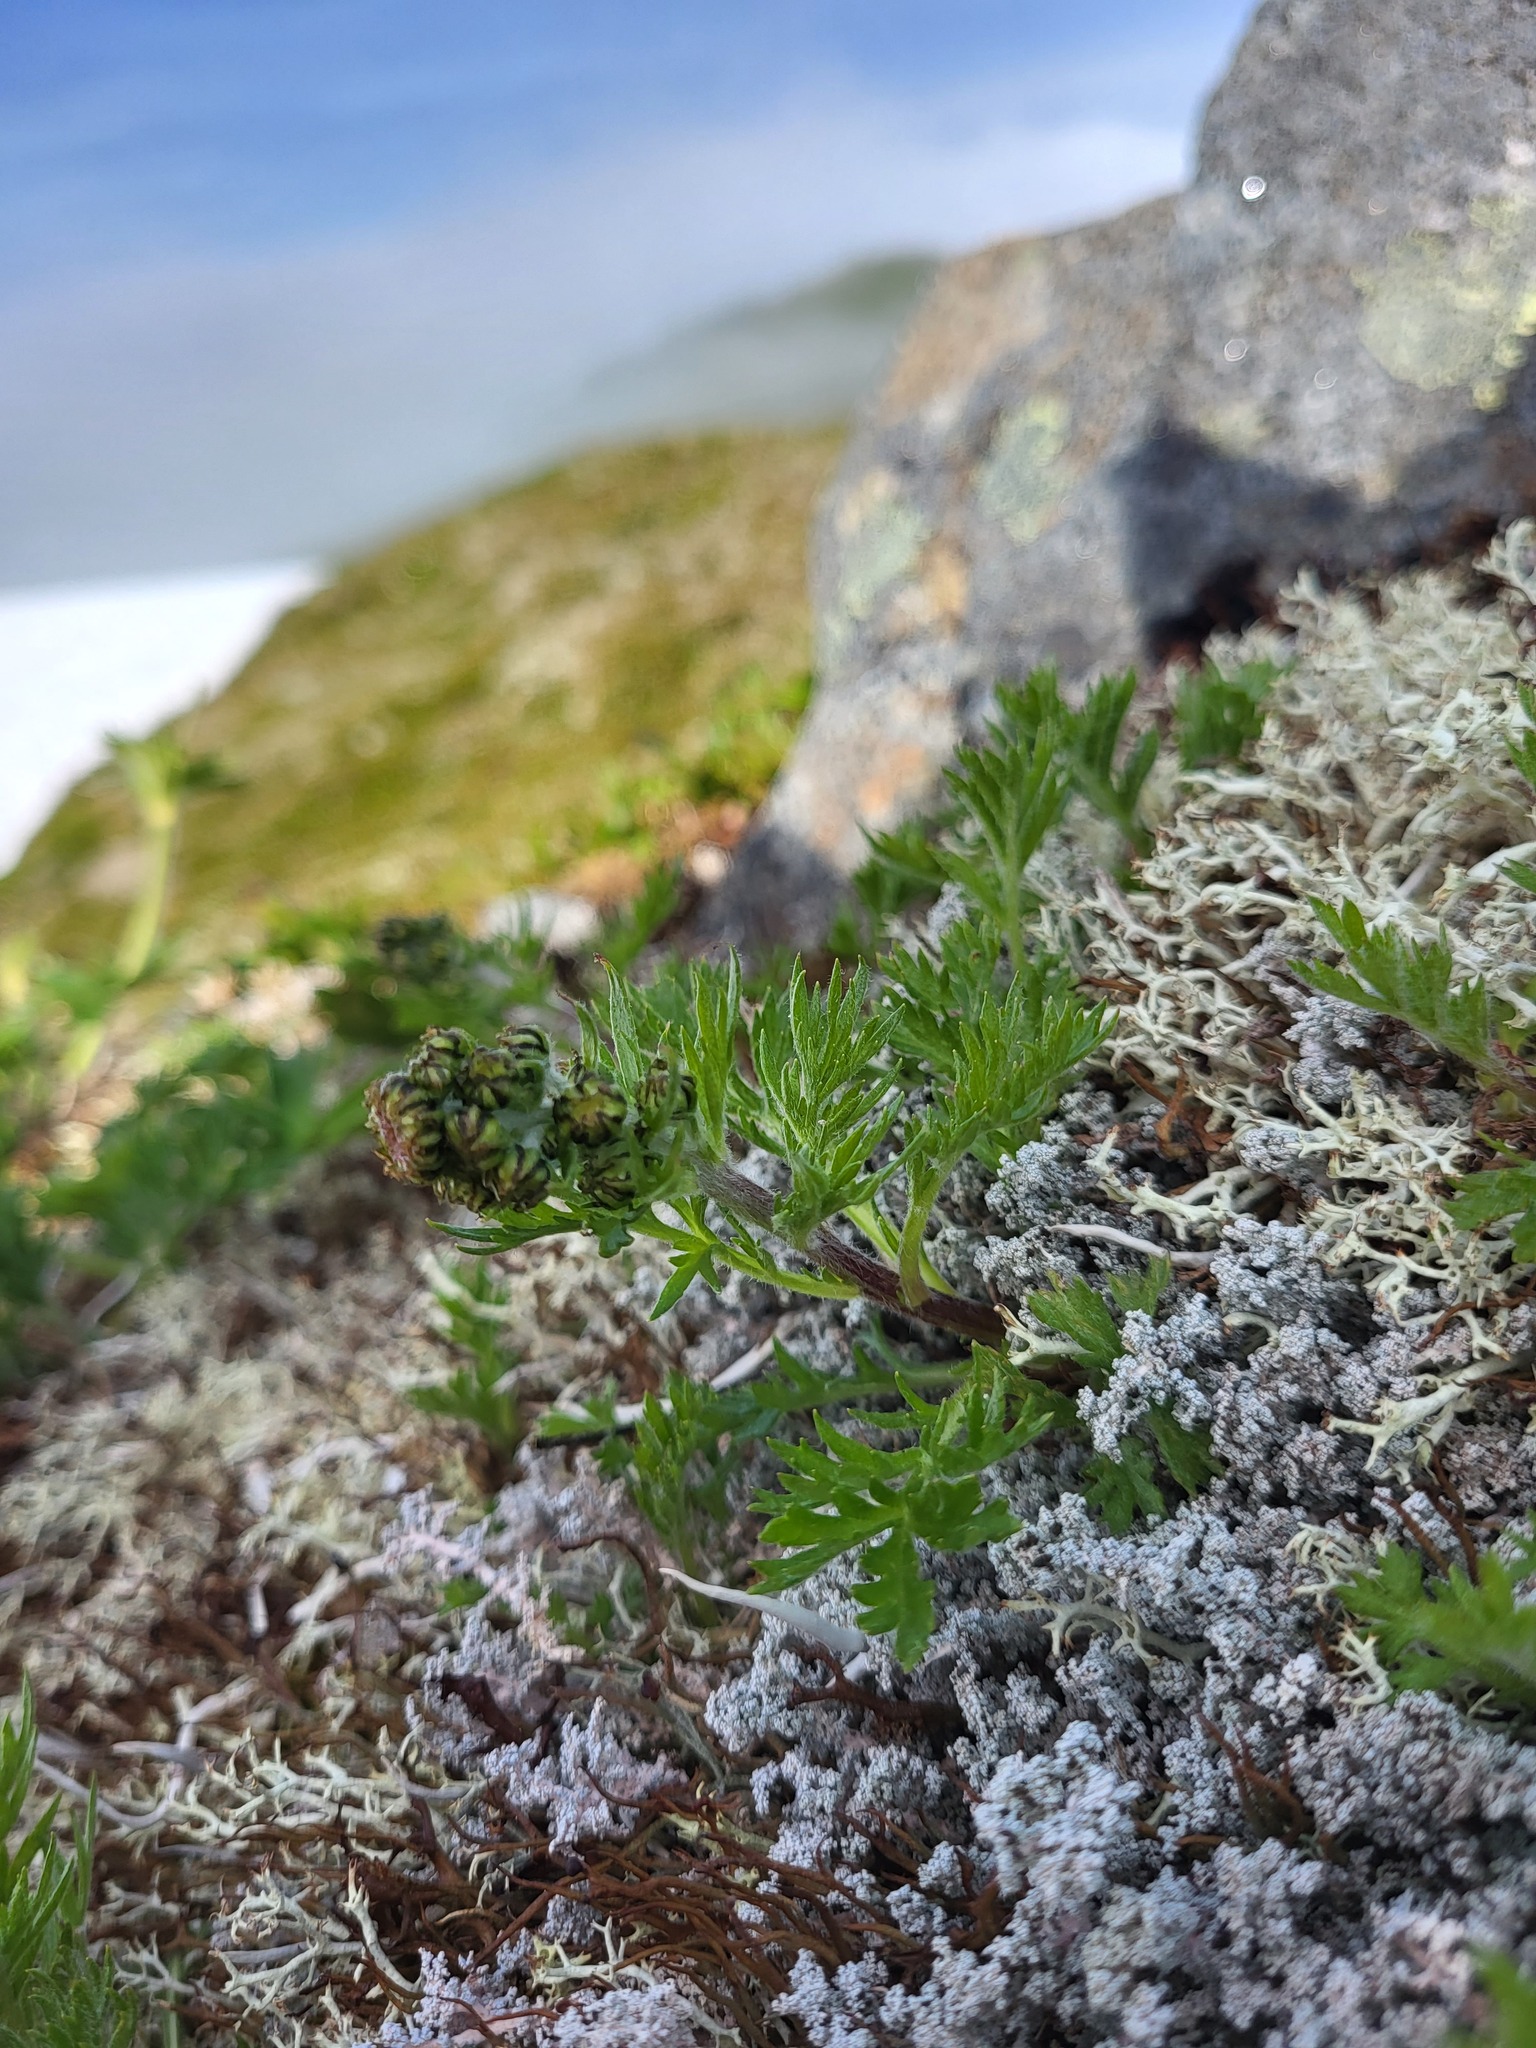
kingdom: Plantae
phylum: Tracheophyta
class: Magnoliopsida
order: Asterales
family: Asteraceae
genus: Artemisia
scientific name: Artemisia norvegica
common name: Norwegian mugwort
